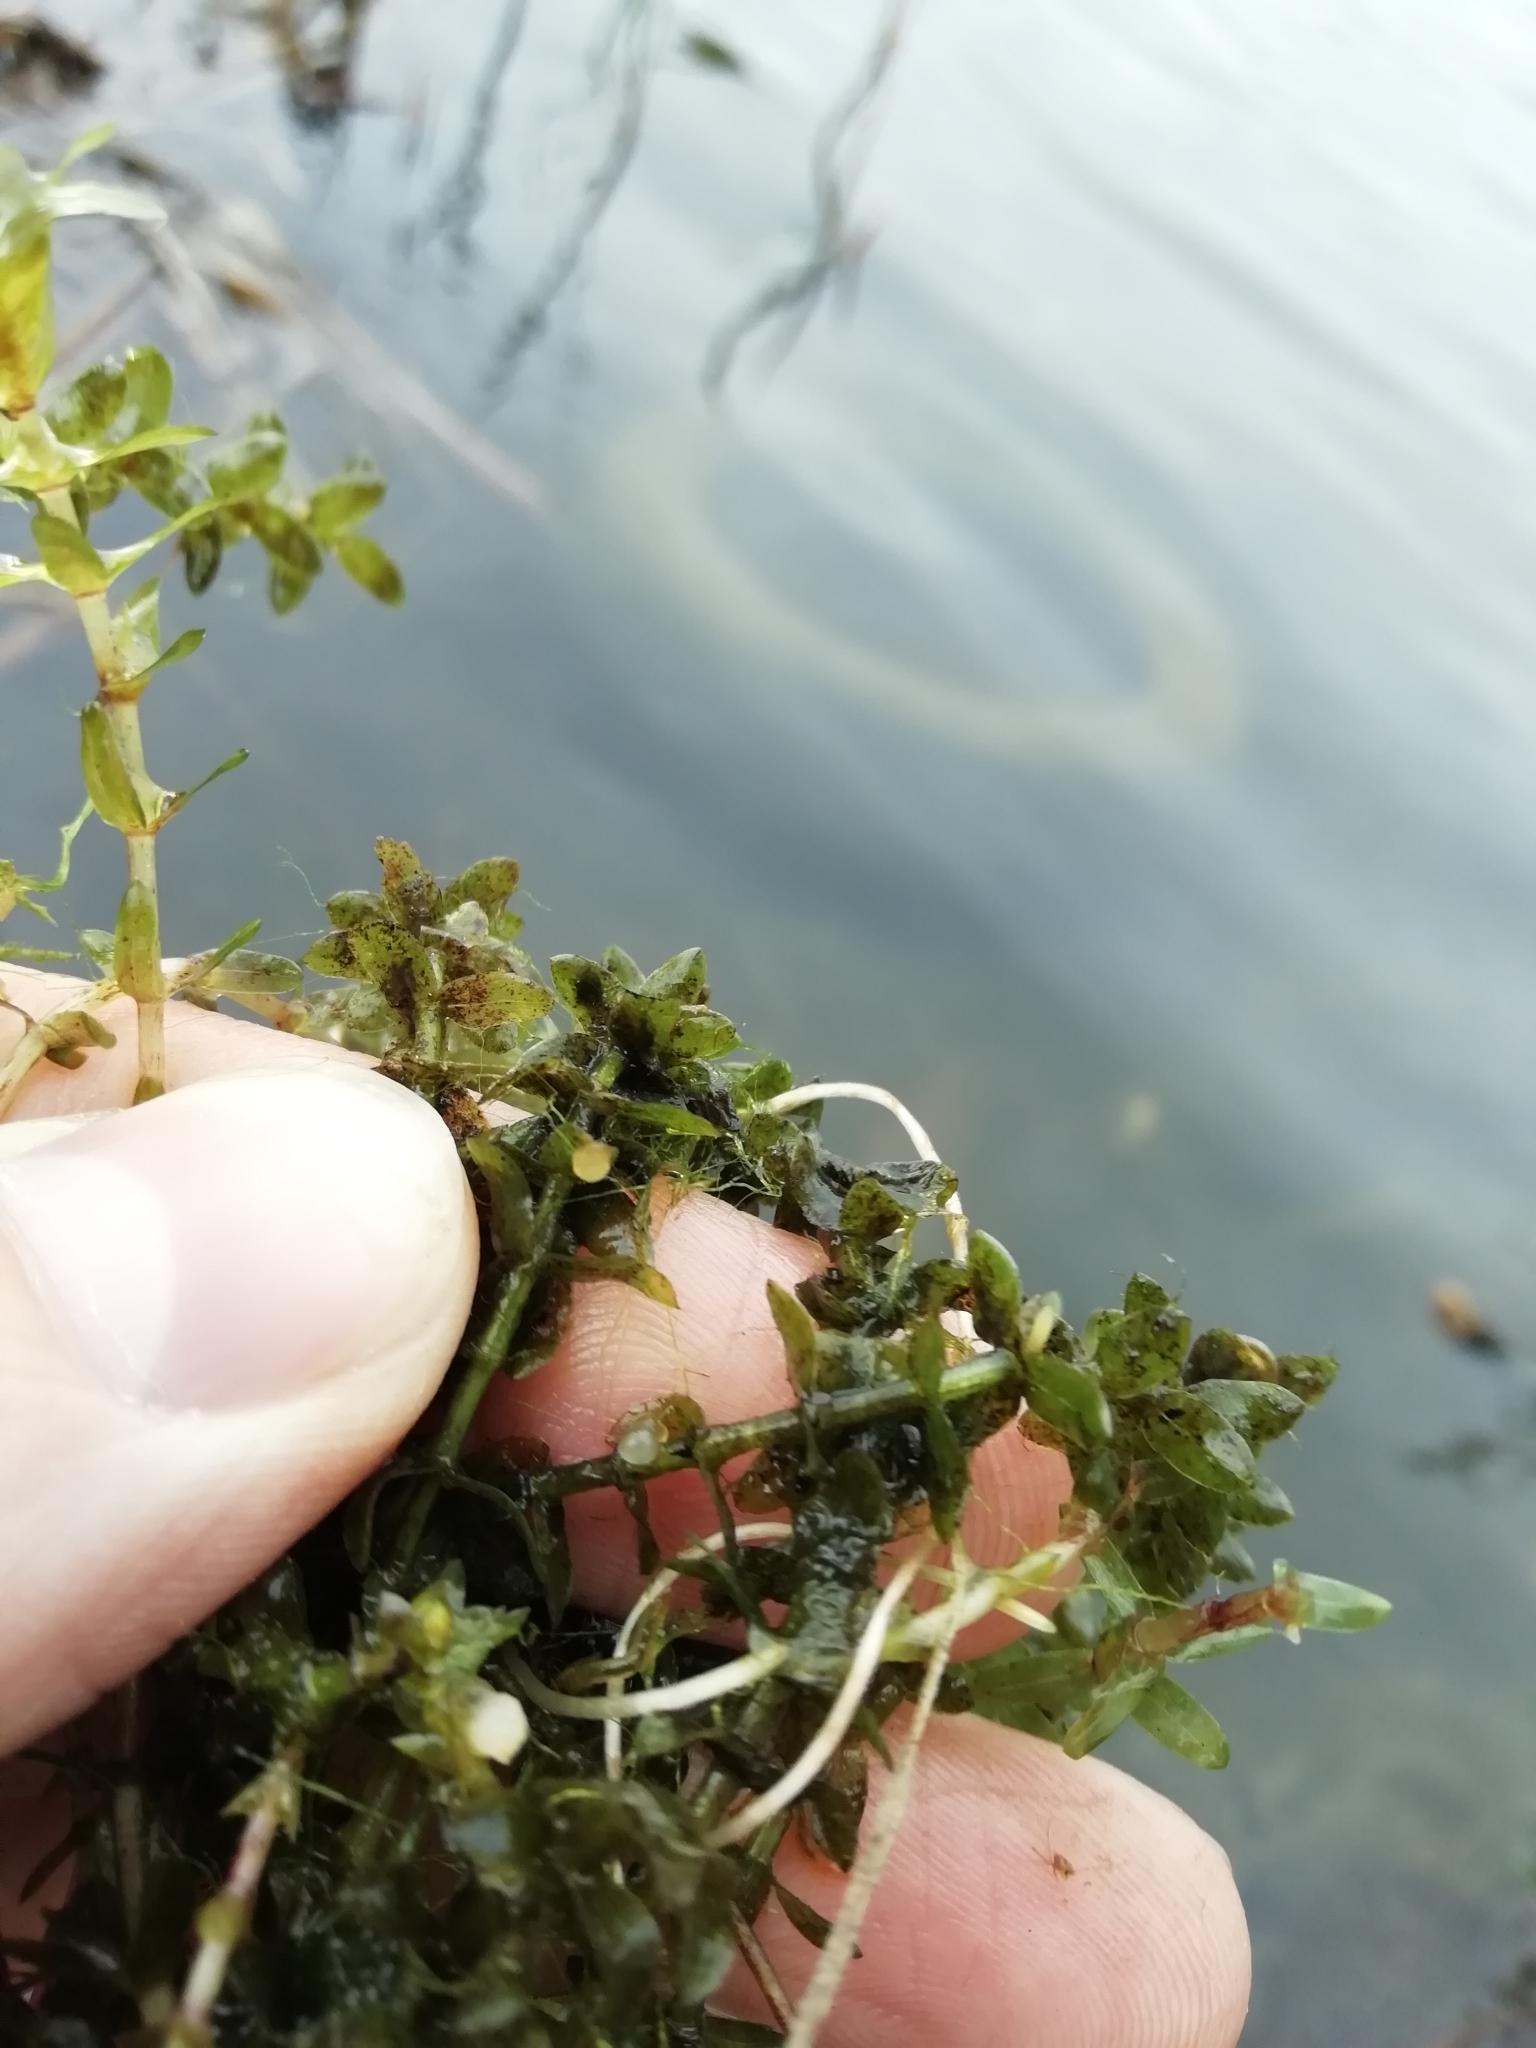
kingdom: Animalia
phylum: Chordata
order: Cypriniformes
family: Cyprinidae
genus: Carassius
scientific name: Carassius gibelio
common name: Prussian carp
